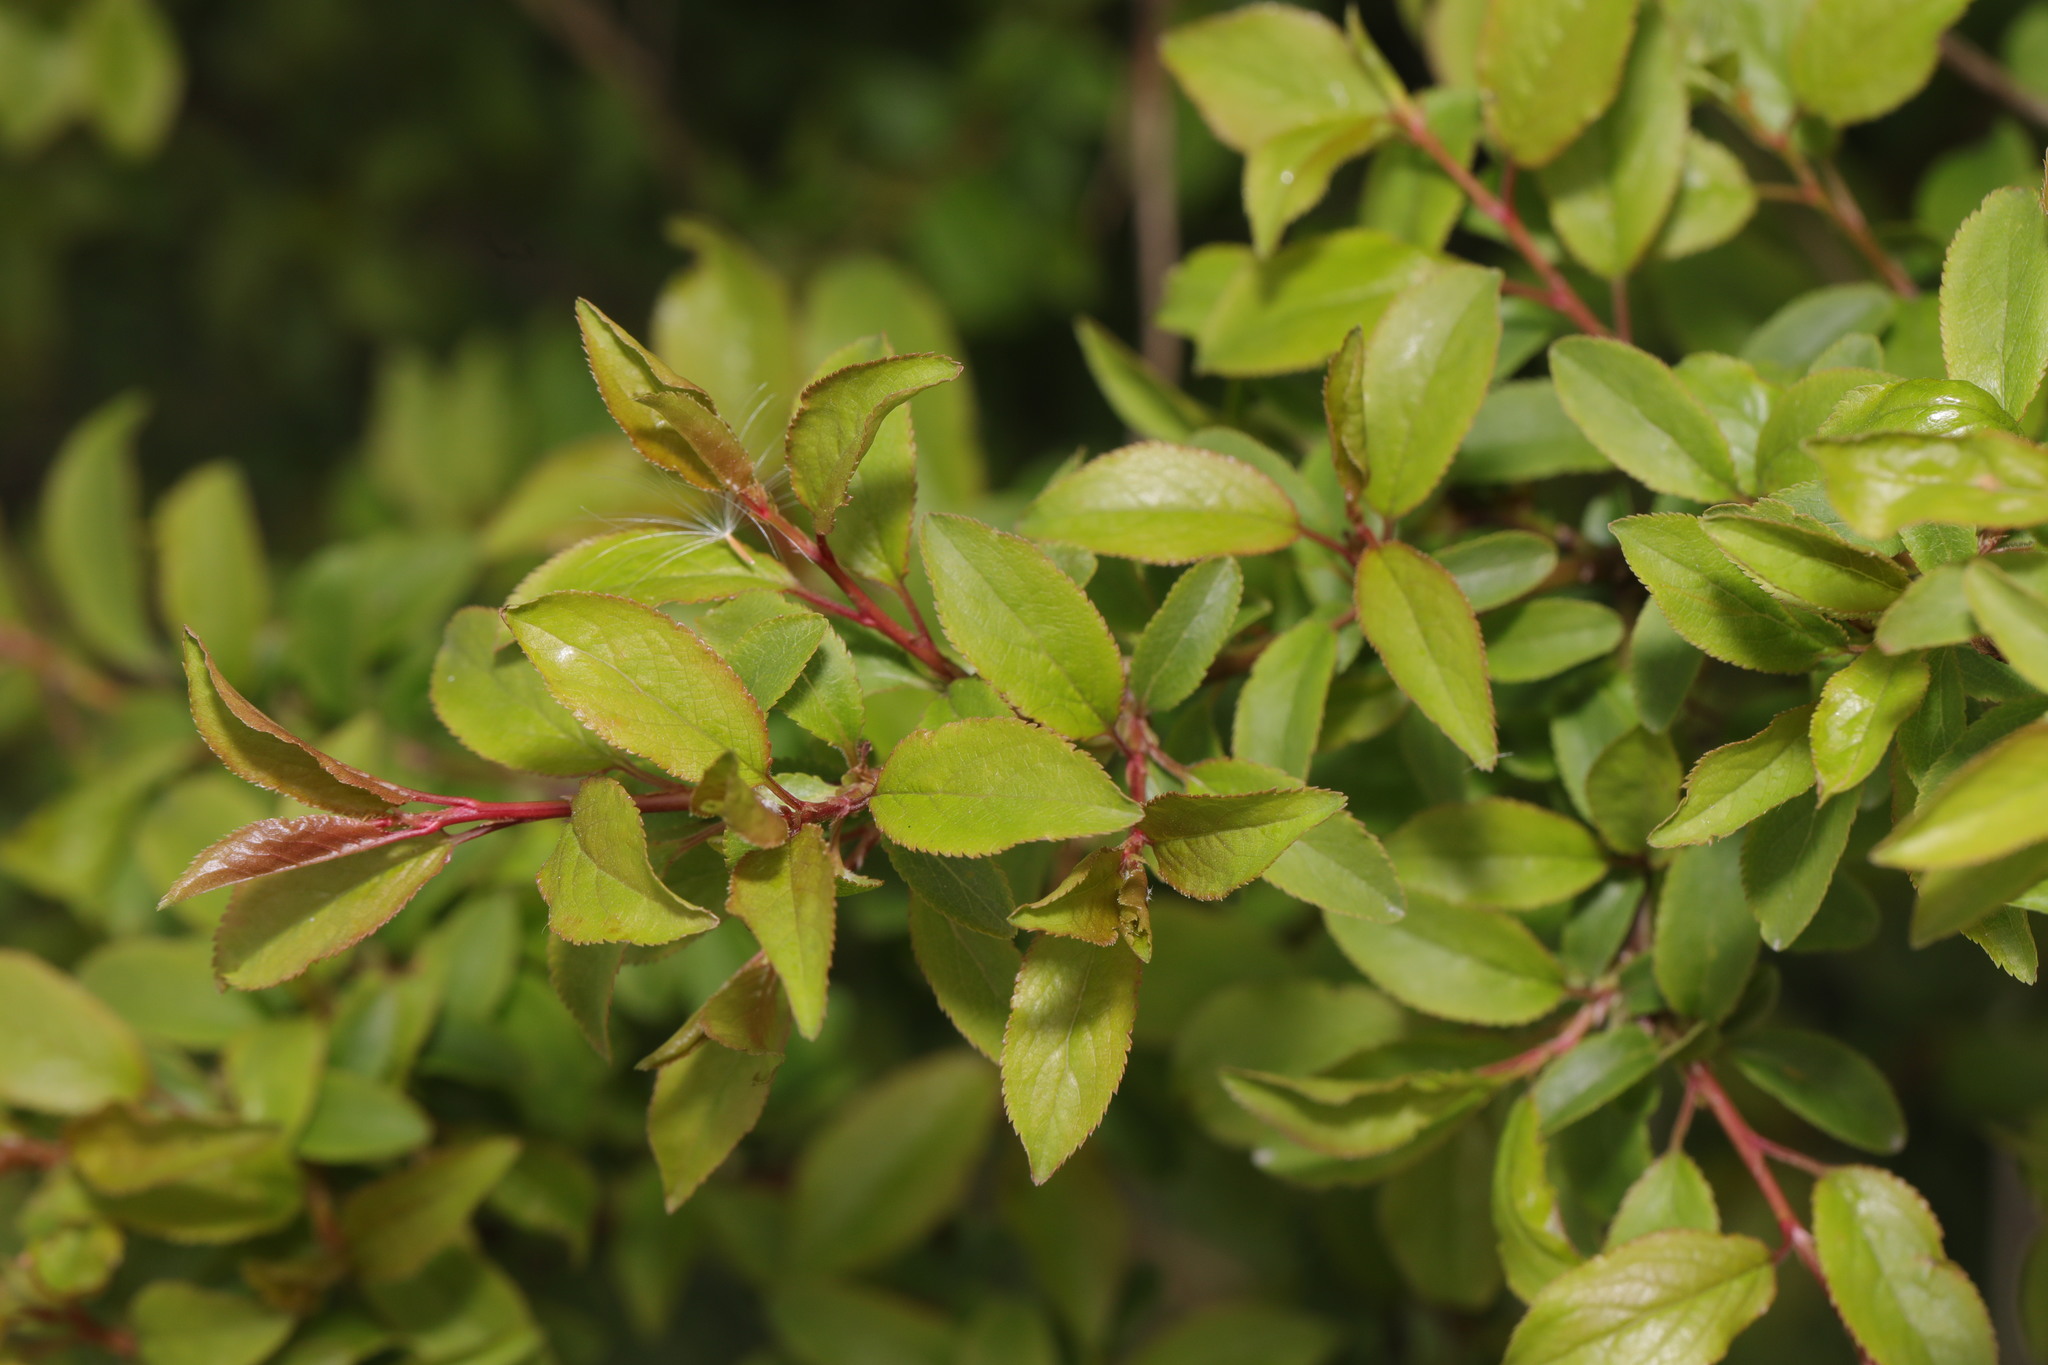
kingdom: Plantae
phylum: Tracheophyta
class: Magnoliopsida
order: Rosales
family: Rosaceae
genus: Prunus
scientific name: Prunus spinosa
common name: Blackthorn
